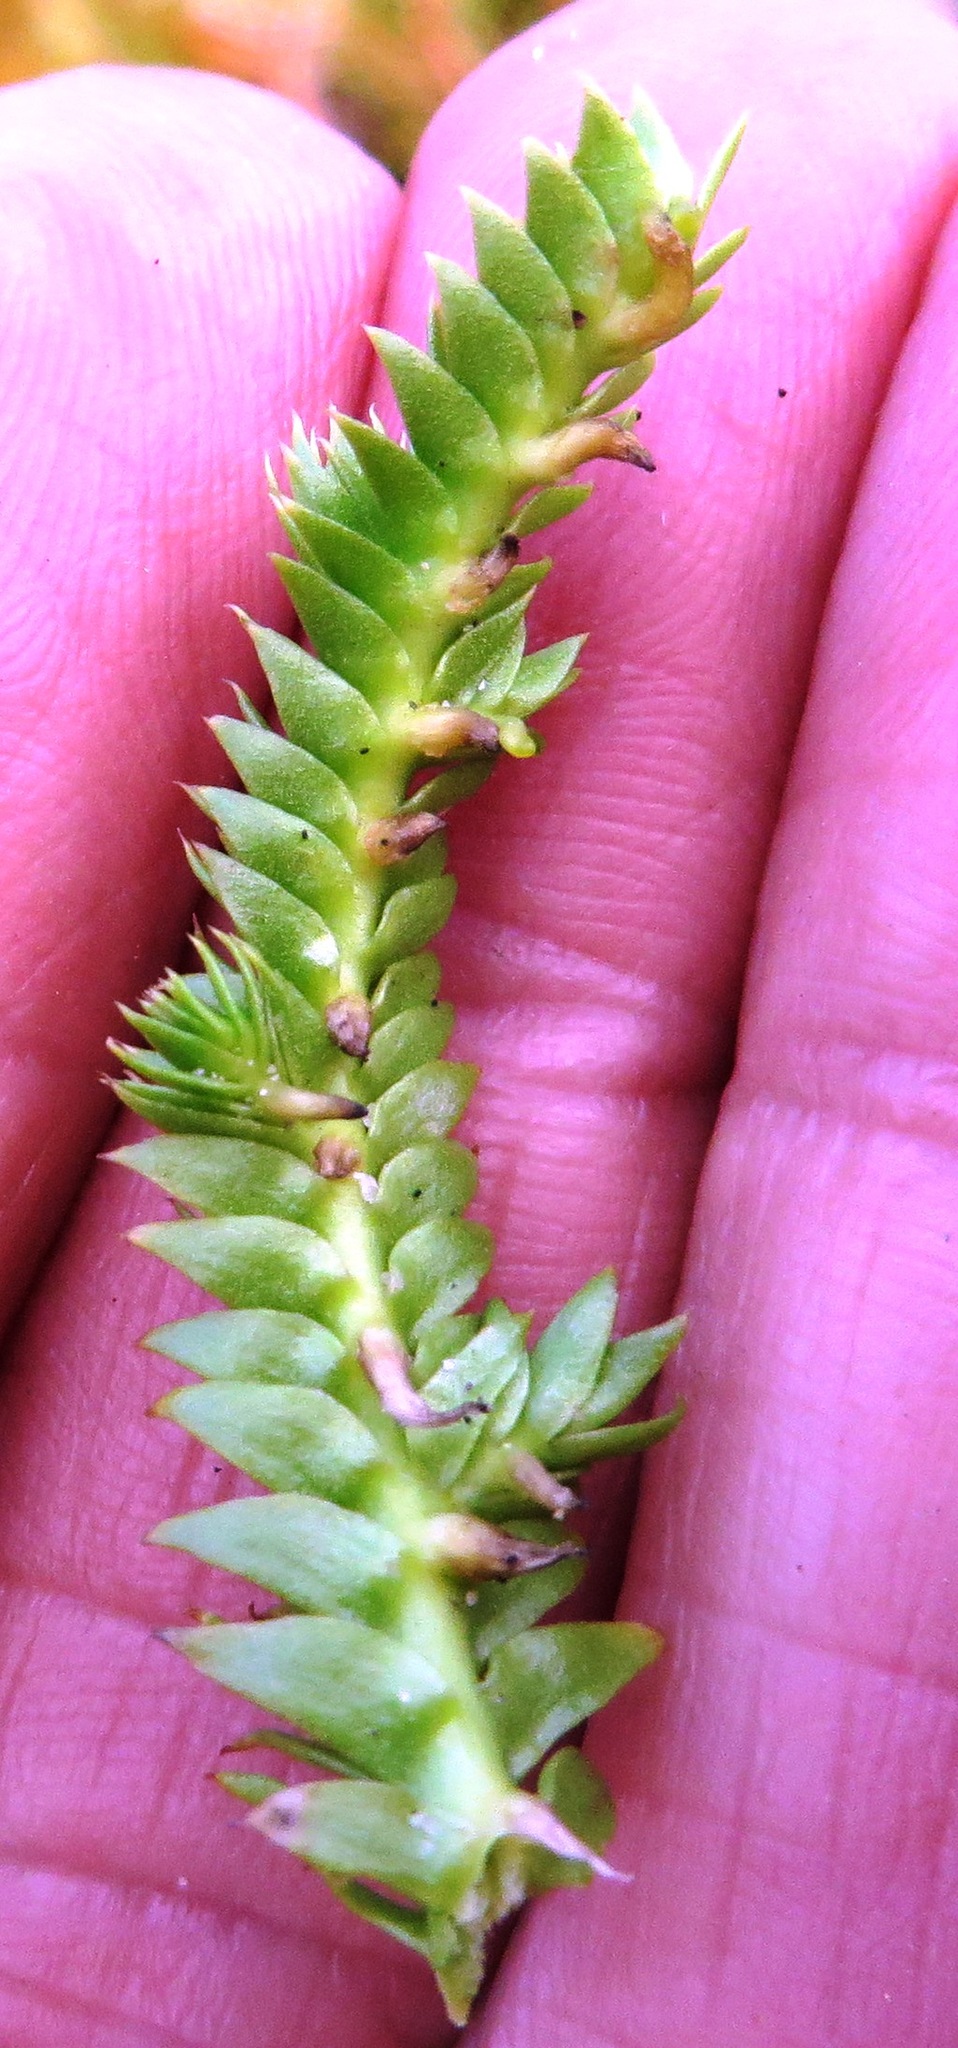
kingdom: Plantae
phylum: Tracheophyta
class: Lycopodiopsida
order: Lycopodiales
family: Lycopodiaceae
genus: Pseudolycopodiella
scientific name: Pseudolycopodiella caroliniana
